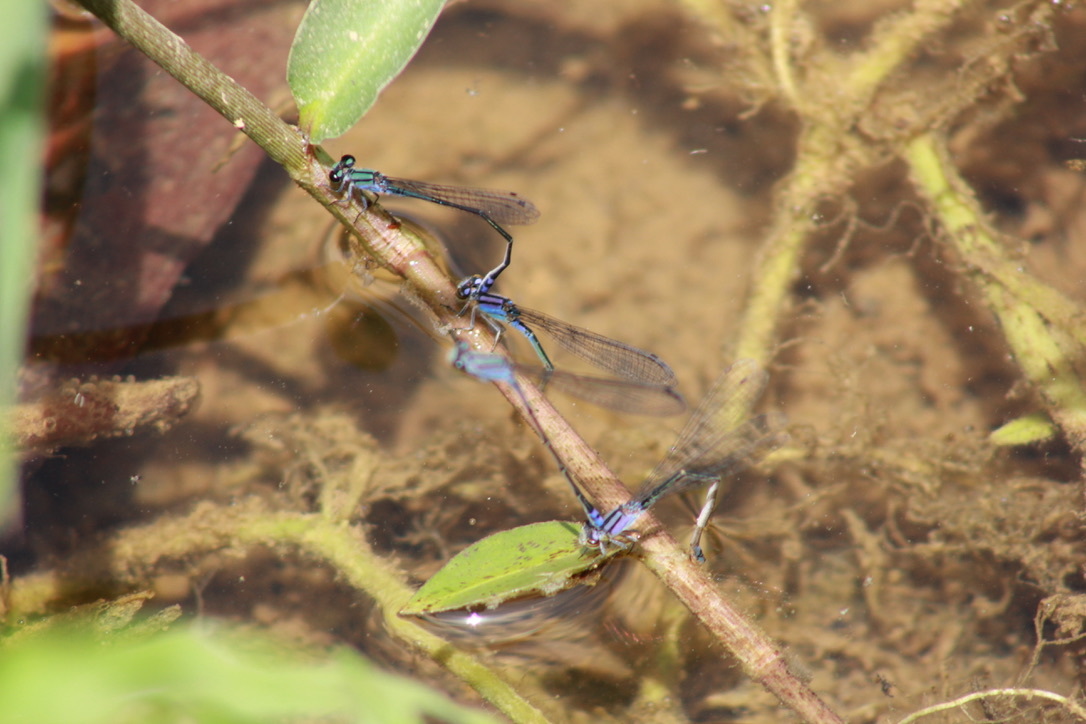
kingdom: Animalia
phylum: Arthropoda
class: Insecta
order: Odonata
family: Coenagrionidae
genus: Enallagma
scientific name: Enallagma novaehispaniae
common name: Neotropical bluet
